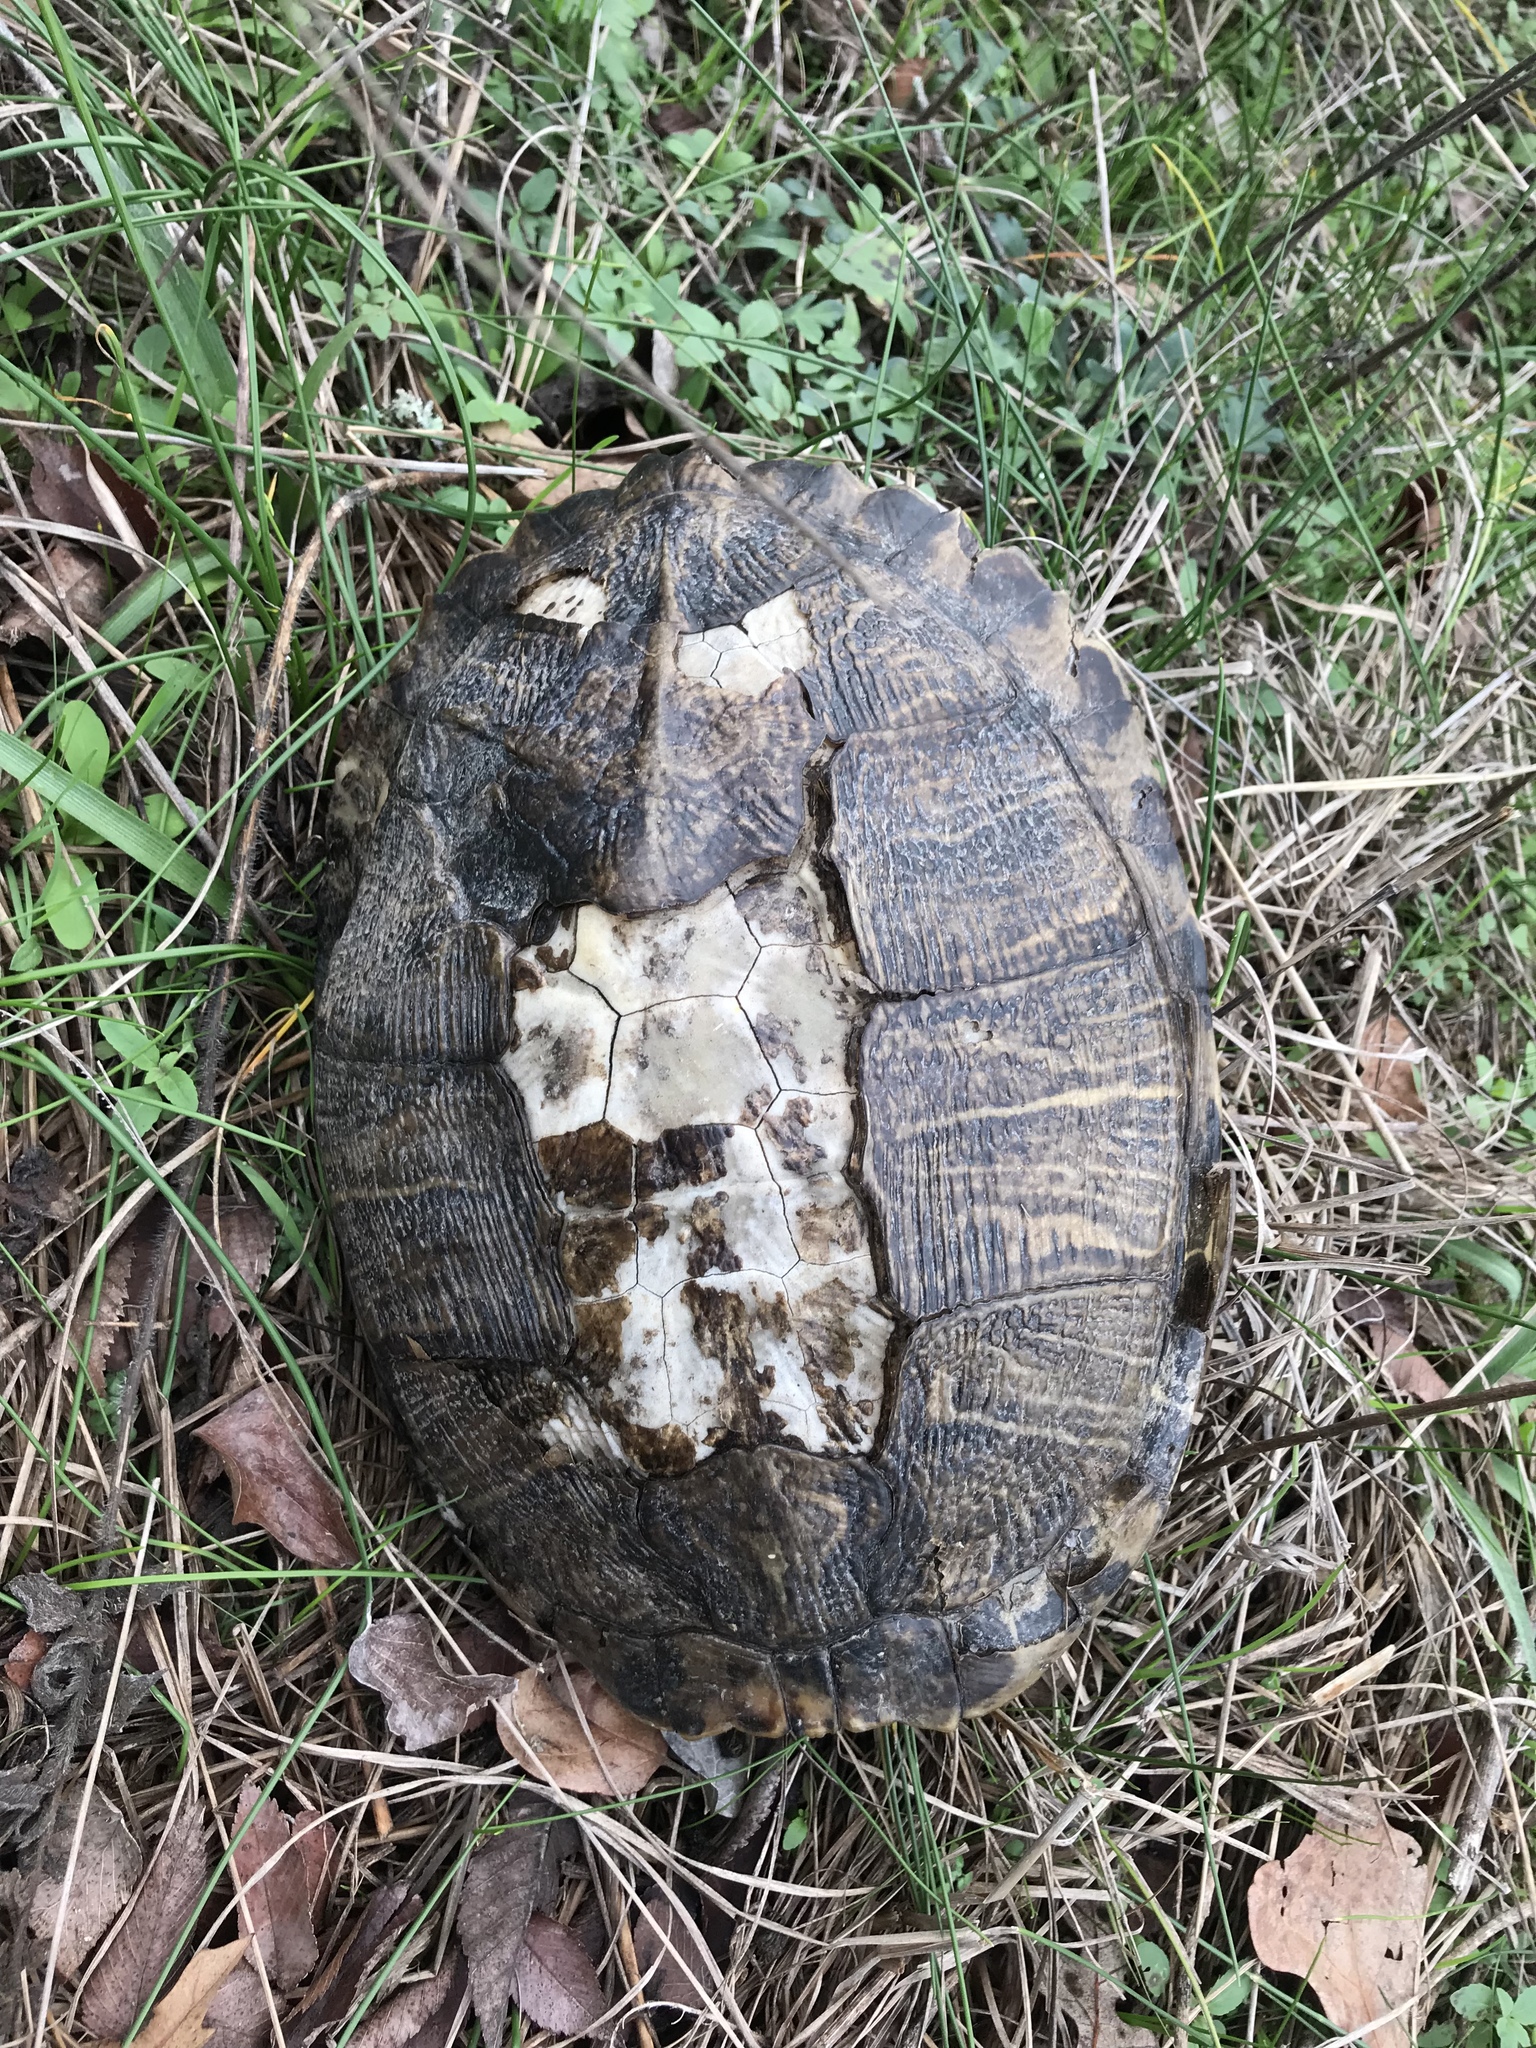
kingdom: Animalia
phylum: Chordata
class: Testudines
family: Emydidae
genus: Trachemys
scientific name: Trachemys scripta
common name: Slider
